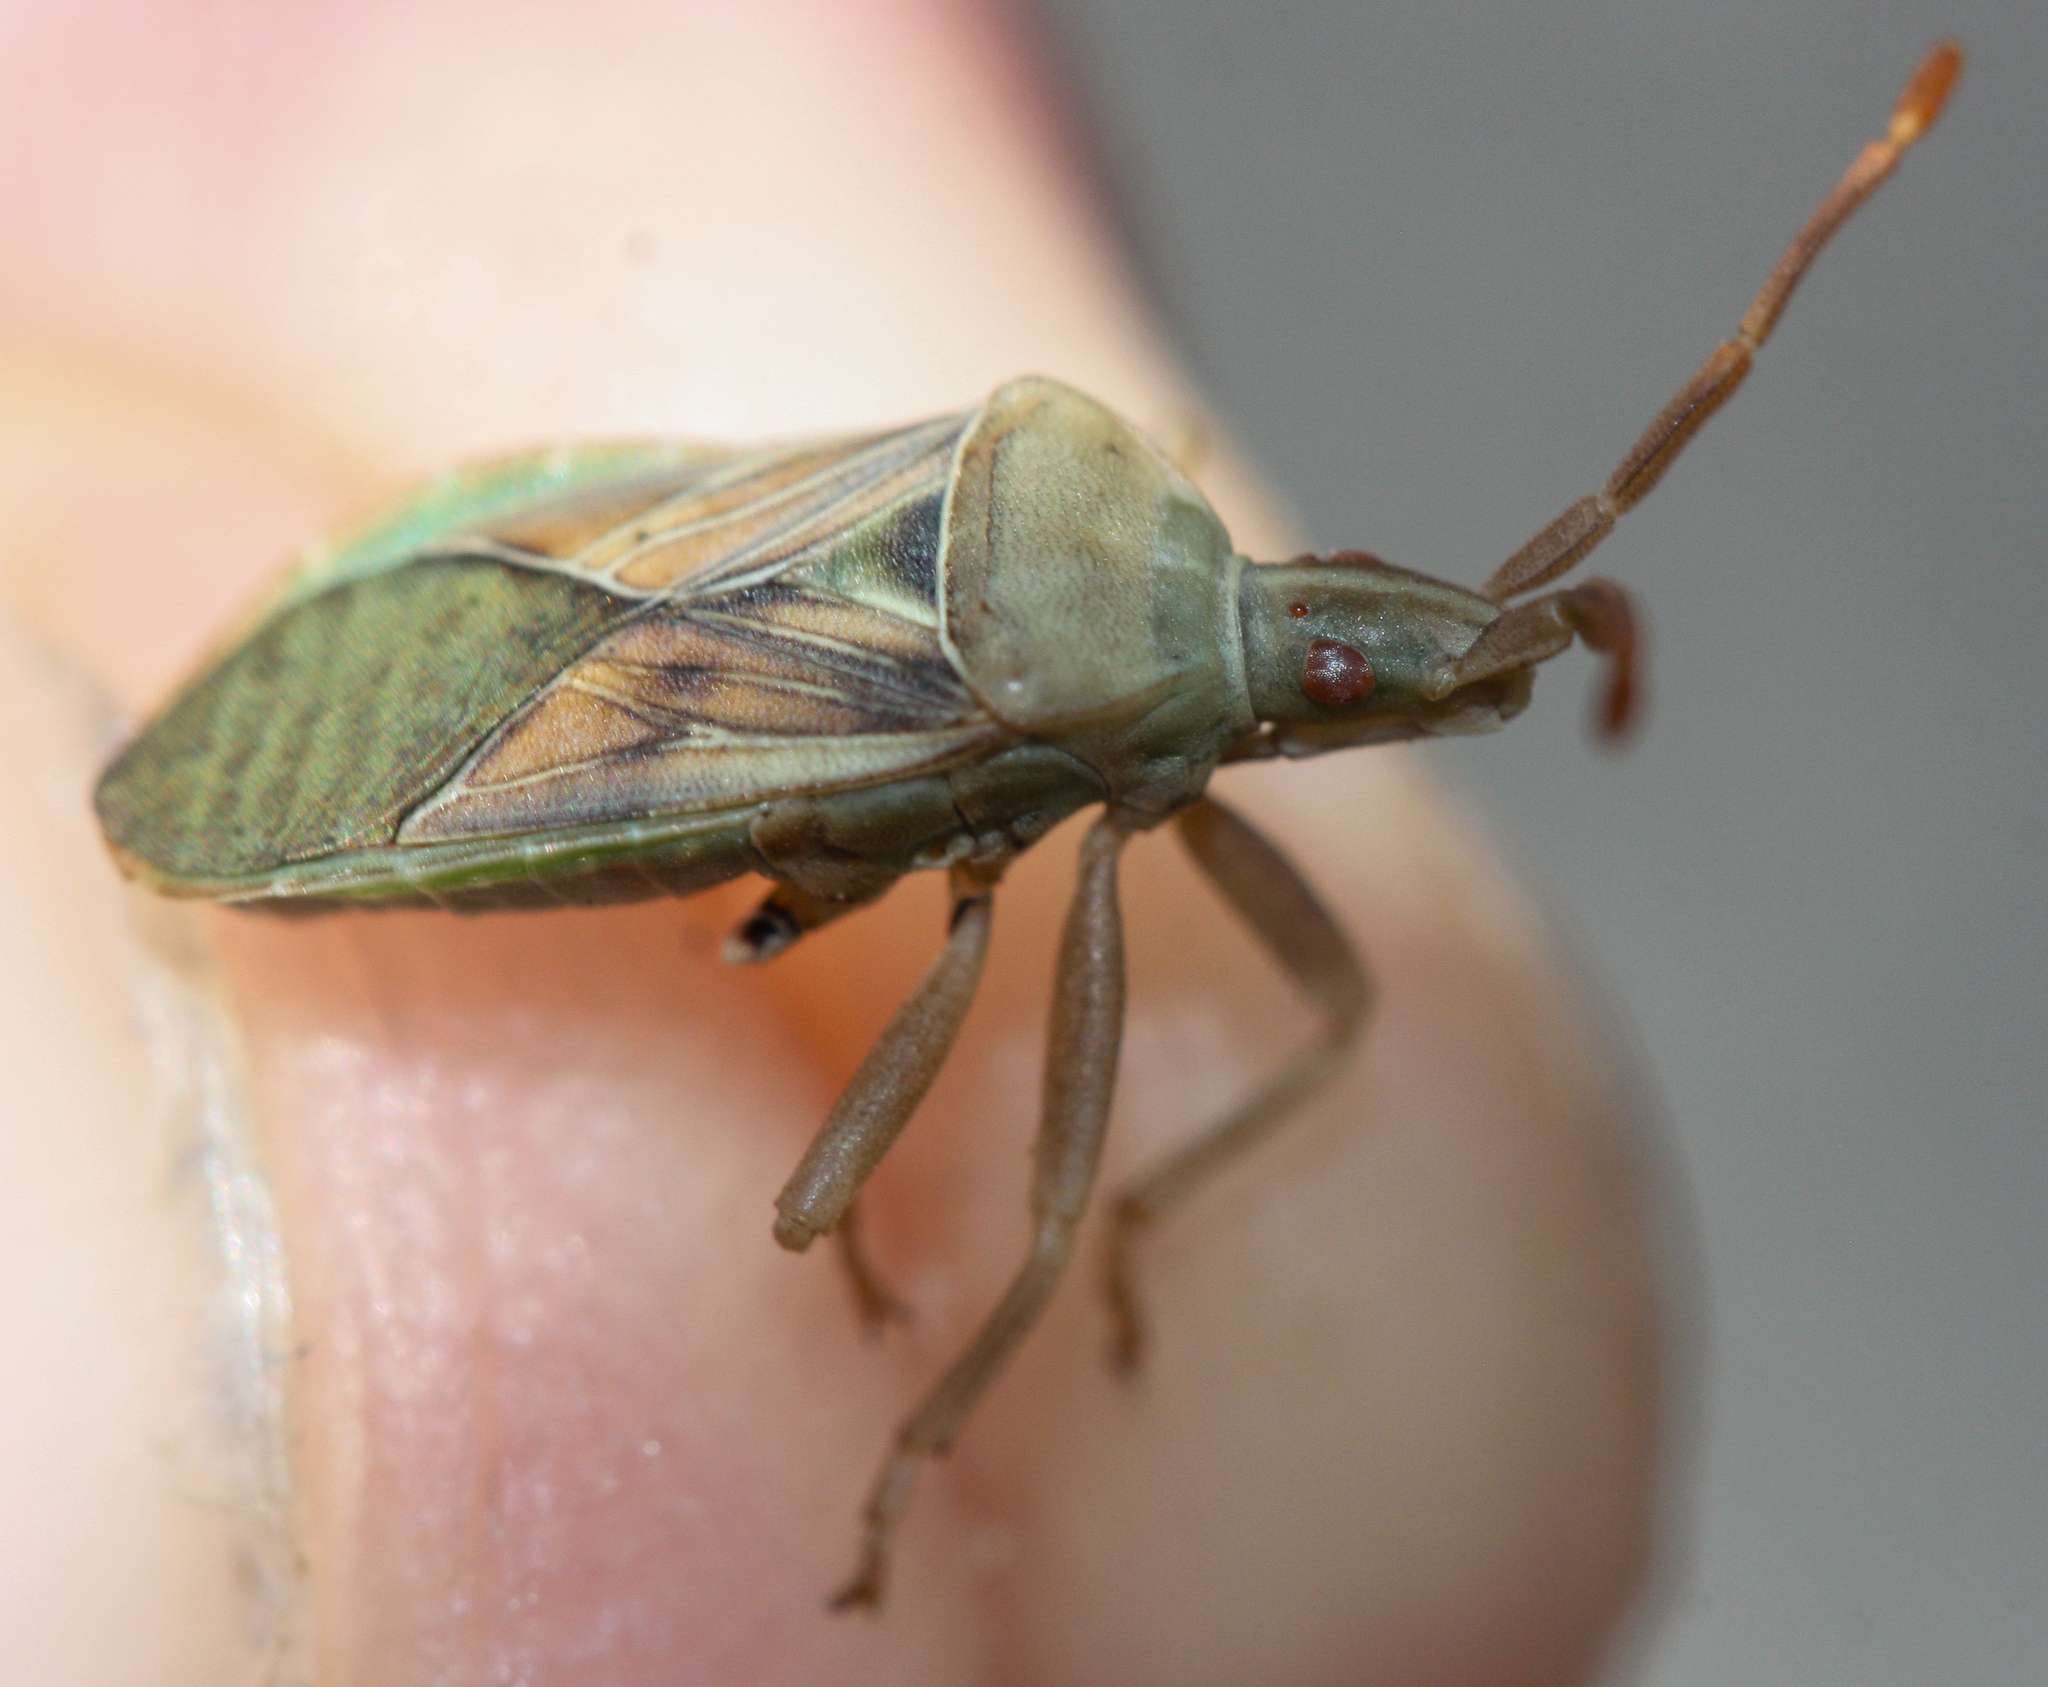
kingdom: Animalia
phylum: Arthropoda
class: Insecta
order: Hemiptera
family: Coreidae
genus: Chelinidea
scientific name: Chelinidea hunteri
